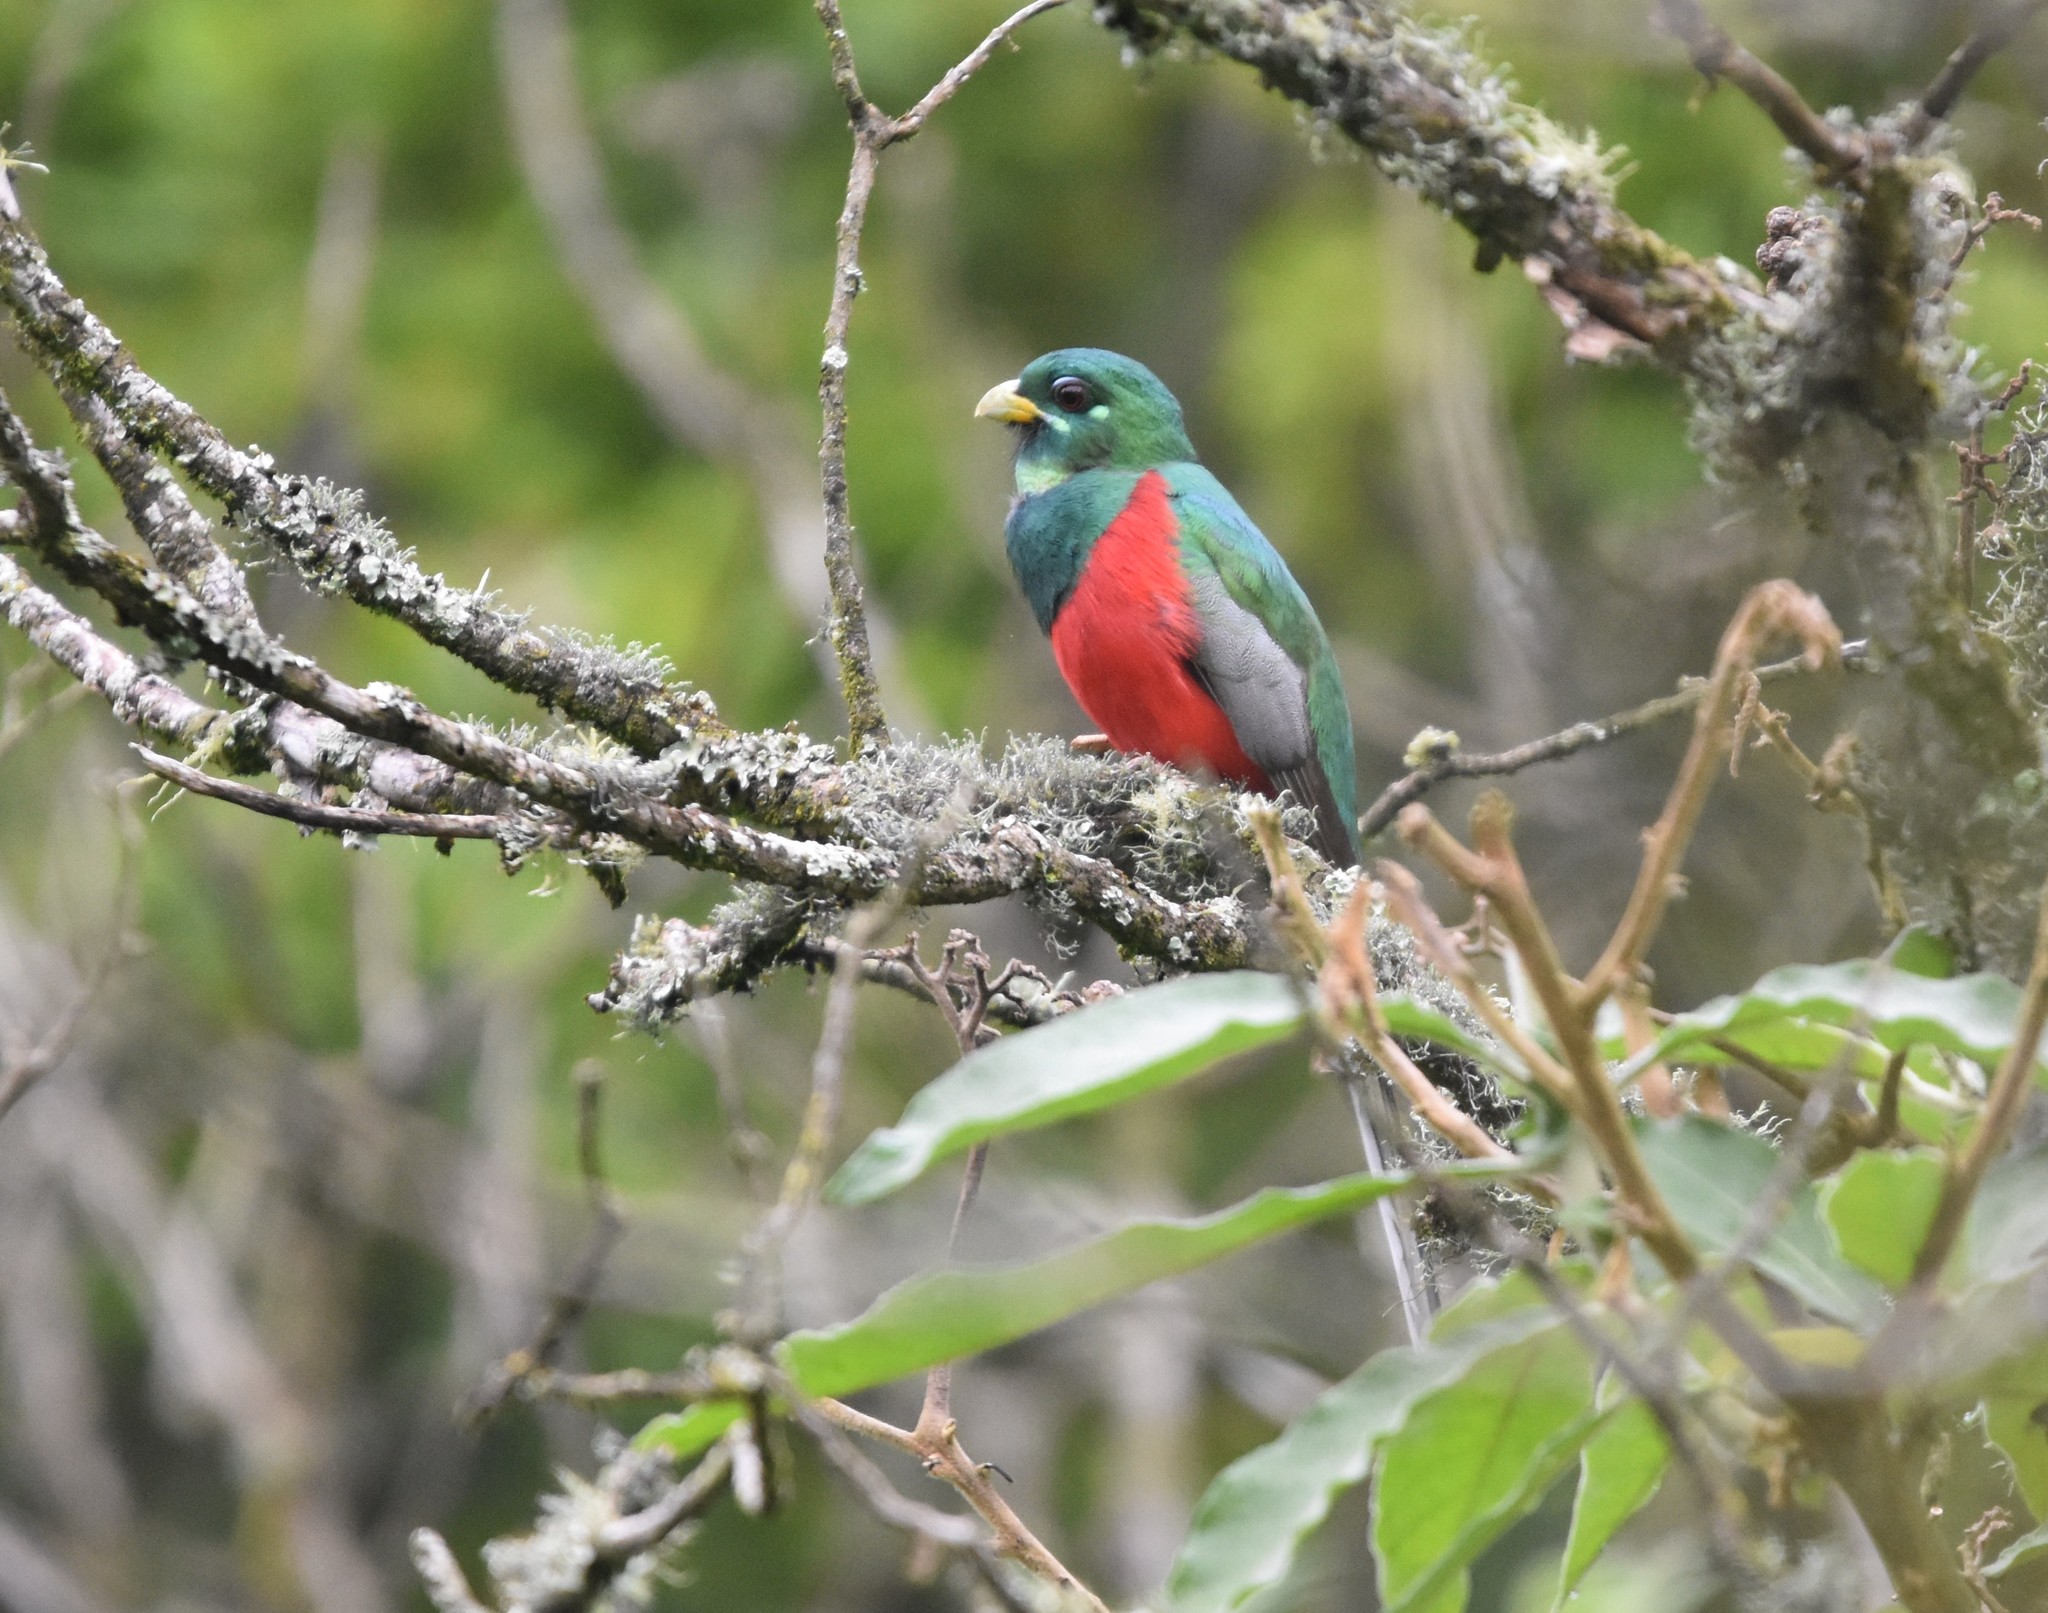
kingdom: Animalia
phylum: Chordata
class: Aves
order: Trogoniformes
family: Trogonidae
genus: Apaloderma
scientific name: Apaloderma narina
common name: Narina trogon
